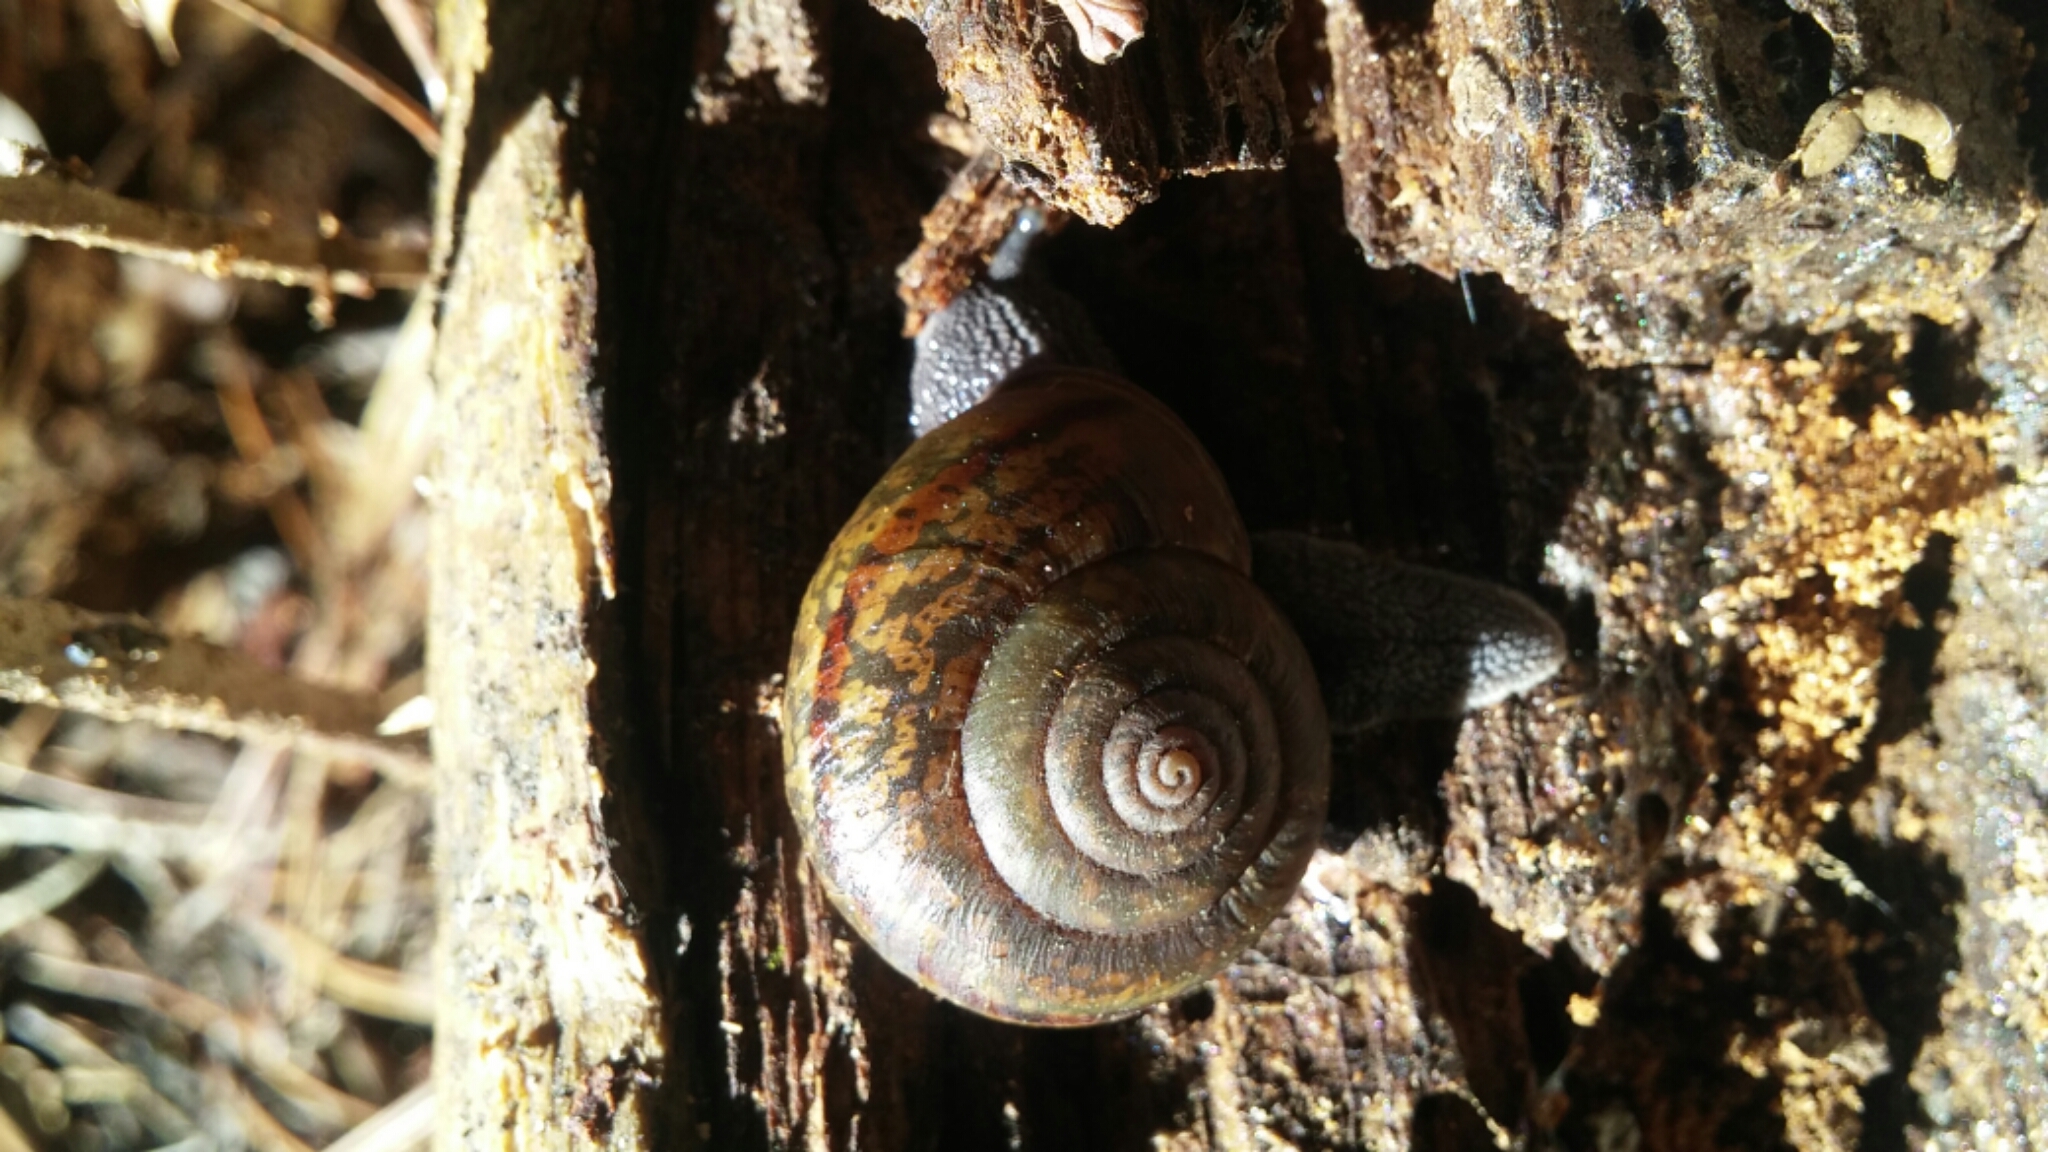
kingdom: Animalia
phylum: Mollusca
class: Gastropoda
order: Stylommatophora
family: Xanthonychidae
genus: Rothelix
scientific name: Rothelix lowei
